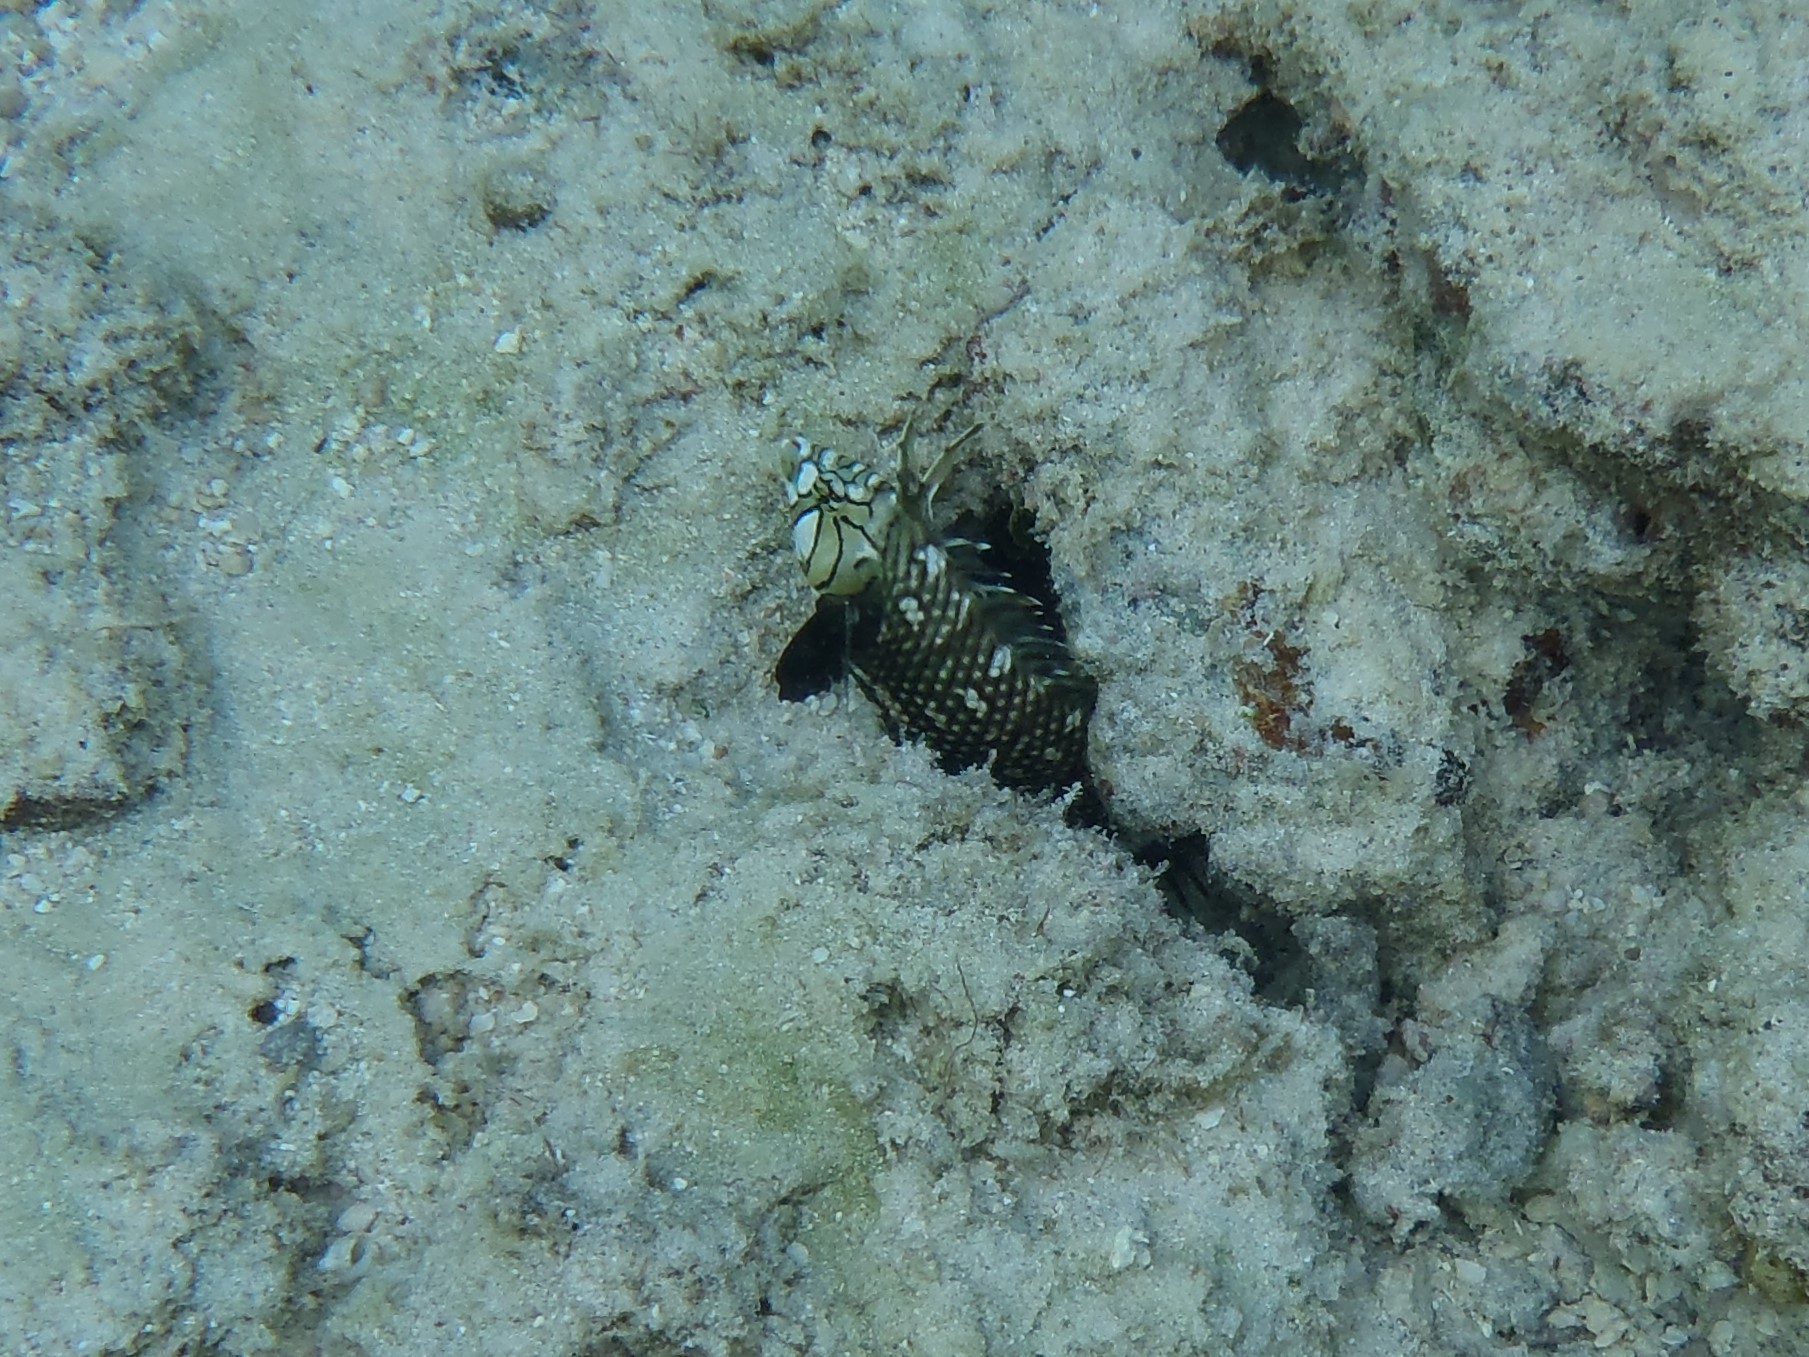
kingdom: Animalia
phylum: Chordata
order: Perciformes
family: Labridae
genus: Novaculichthys
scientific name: Novaculichthys taeniourus
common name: Rockmover wrasse
